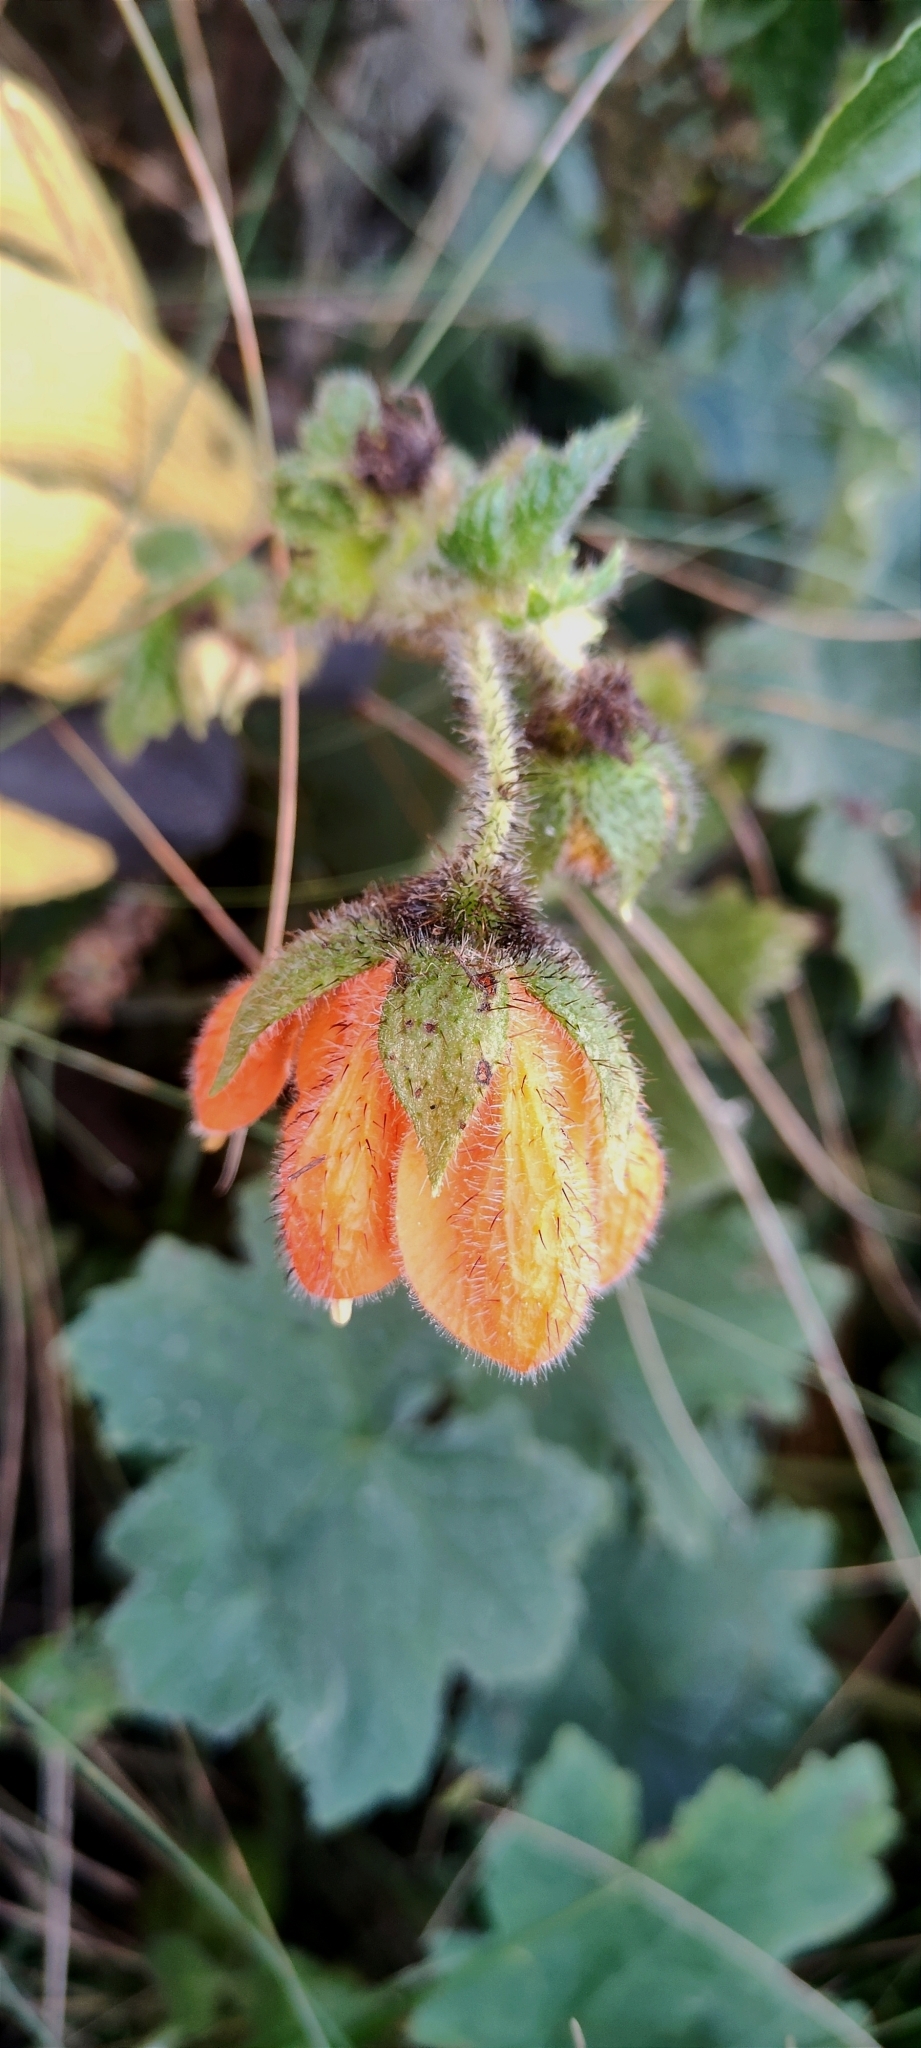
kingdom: Plantae
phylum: Tracheophyta
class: Magnoliopsida
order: Cornales
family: Loasaceae
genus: Nasa
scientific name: Nasa ranunculifolia
